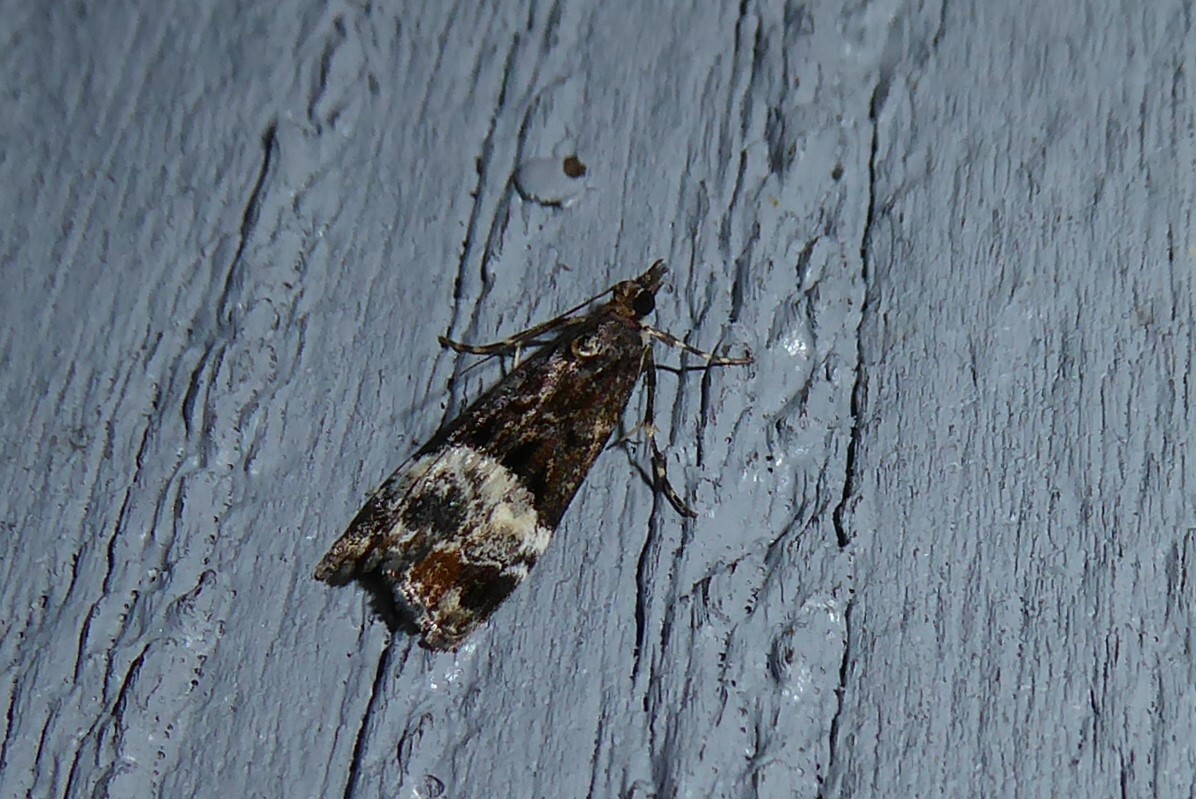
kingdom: Animalia
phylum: Arthropoda
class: Insecta
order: Lepidoptera
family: Crambidae
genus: Scoparia
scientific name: Scoparia minusculalis
